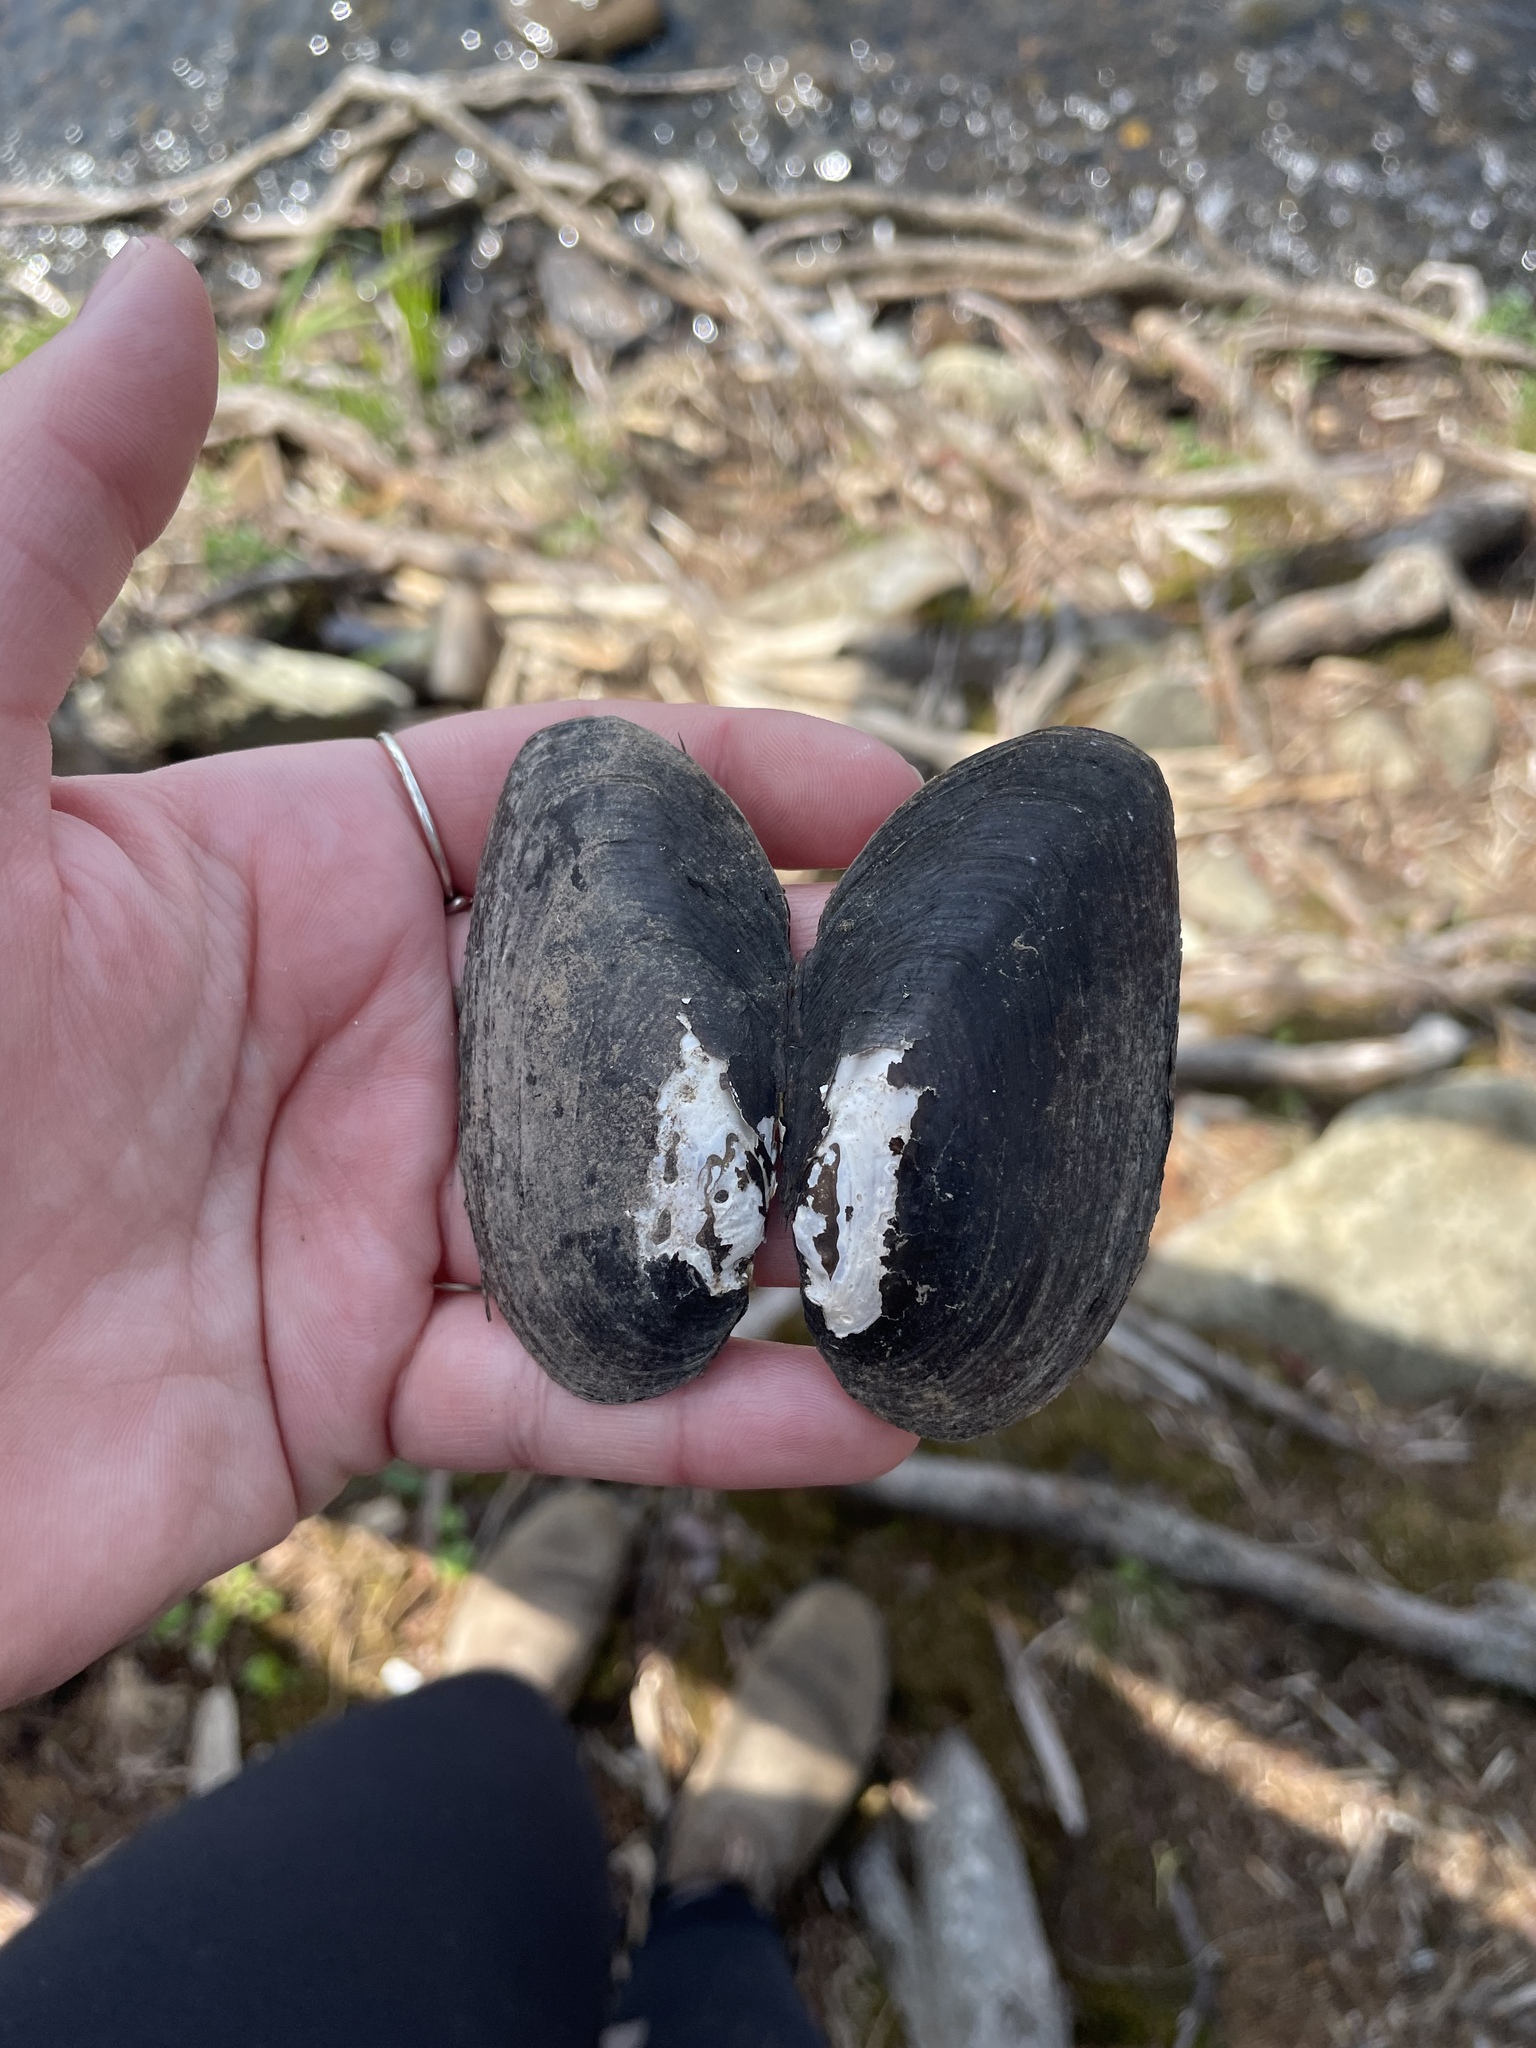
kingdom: Animalia
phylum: Mollusca
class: Bivalvia
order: Unionida
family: Unionidae
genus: Elliptio
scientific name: Elliptio complanata
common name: Eastern elliptio
